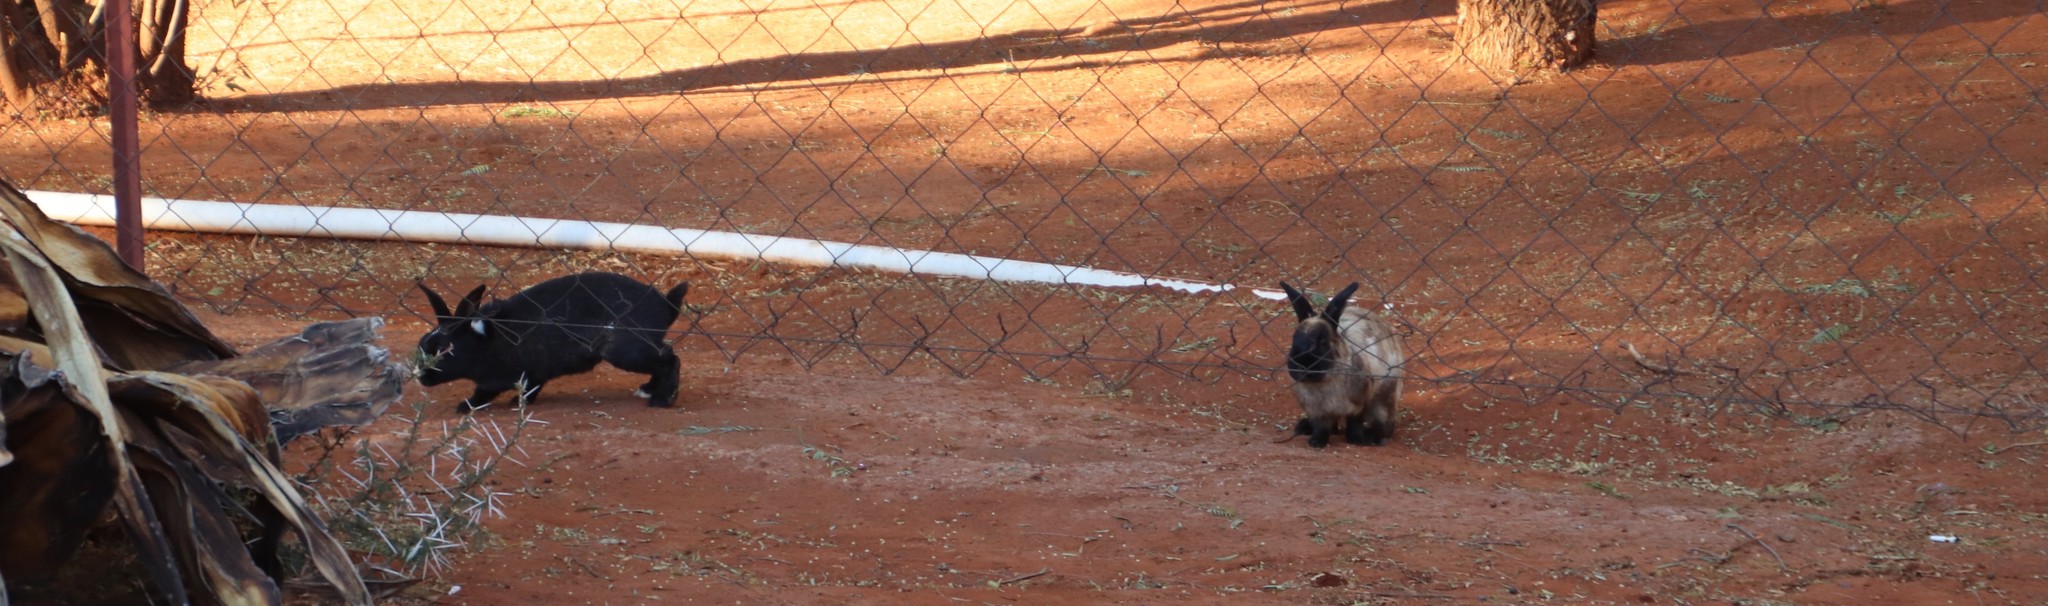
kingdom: Animalia
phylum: Chordata
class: Mammalia
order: Lagomorpha
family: Leporidae
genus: Oryctolagus
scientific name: Oryctolagus cuniculus
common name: European rabbit
